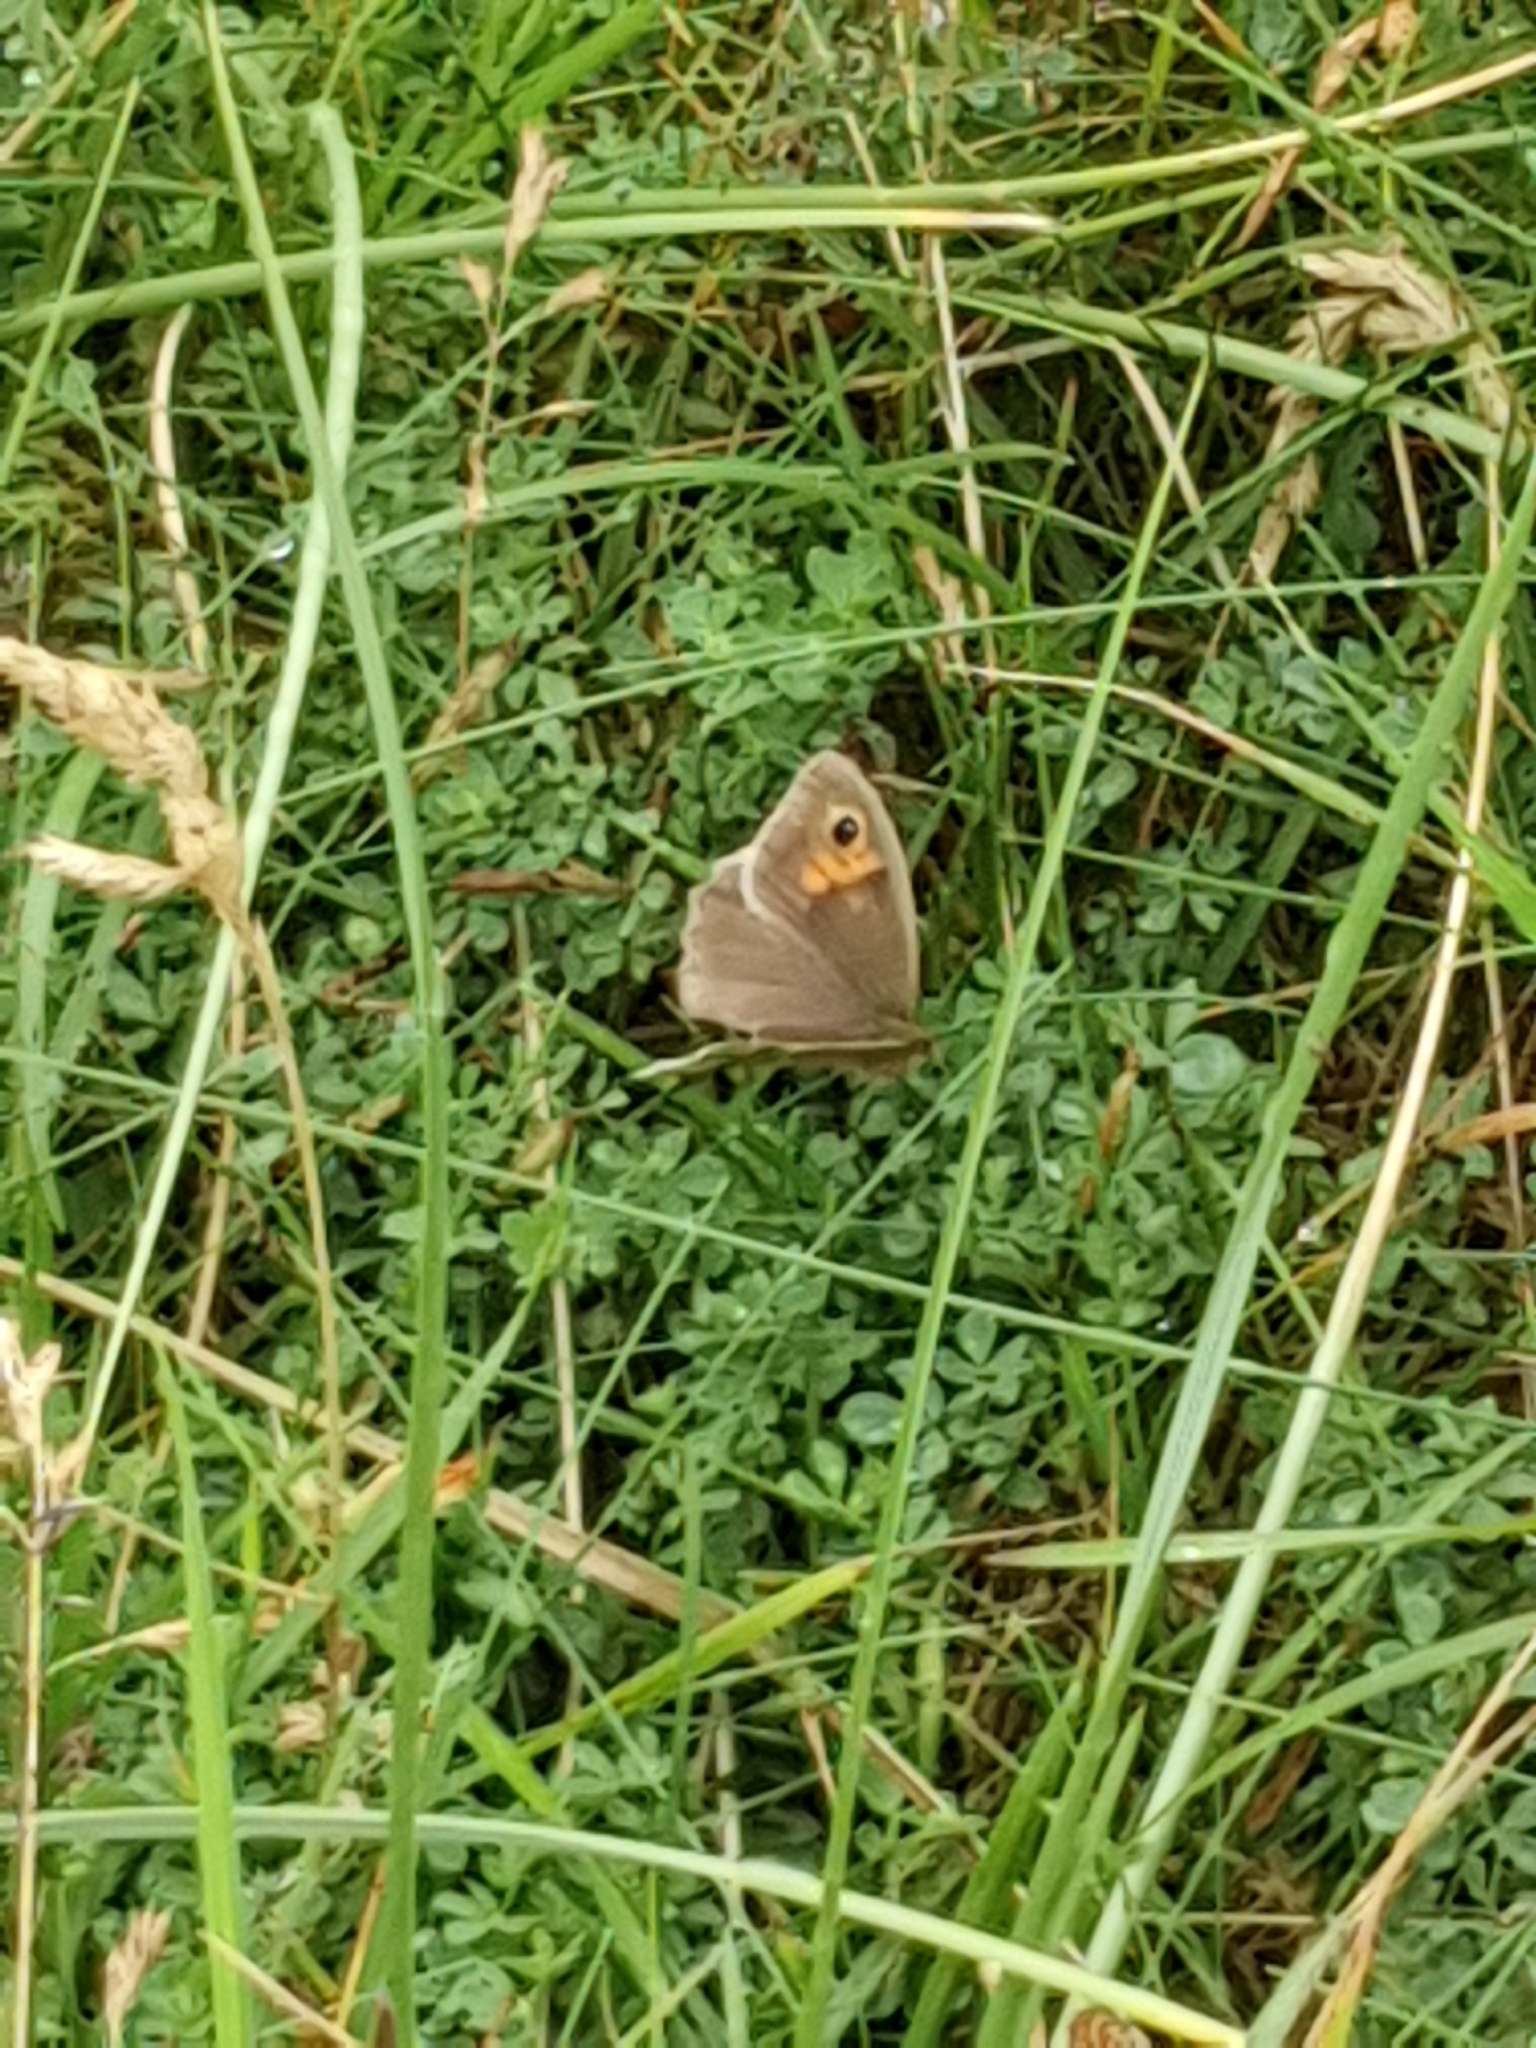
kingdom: Animalia
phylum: Arthropoda
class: Insecta
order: Lepidoptera
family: Nymphalidae
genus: Maniola
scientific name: Maniola jurtina
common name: Meadow brown
